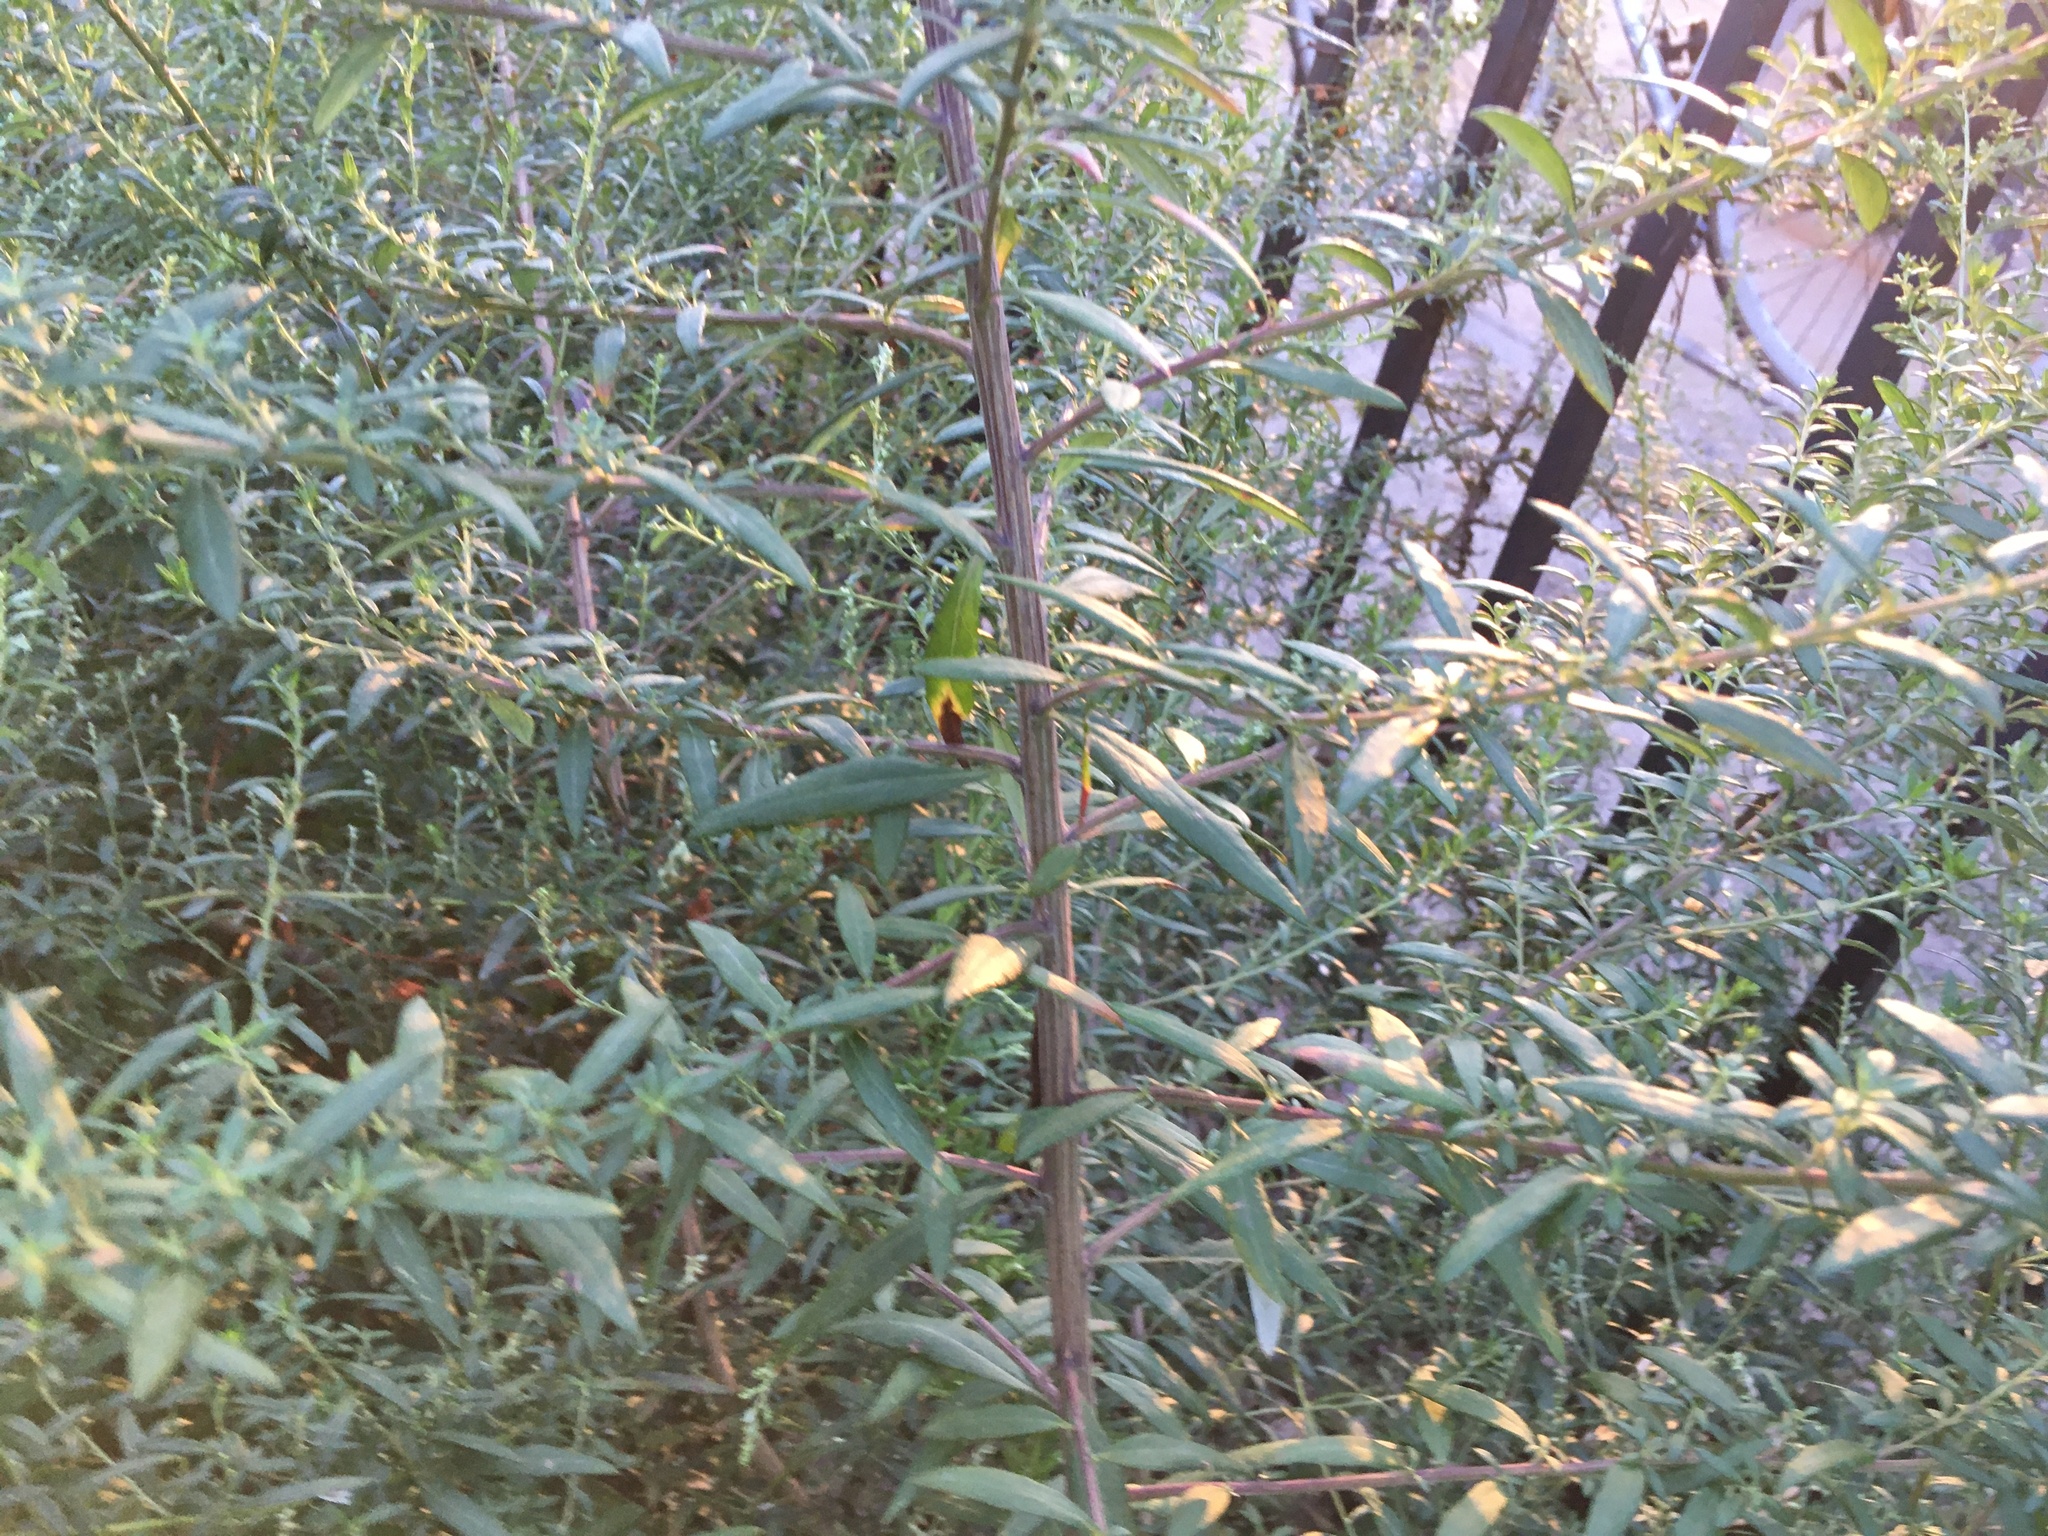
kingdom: Plantae
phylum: Tracheophyta
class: Magnoliopsida
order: Asterales
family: Asteraceae
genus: Artemisia
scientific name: Artemisia vulgaris
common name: Mugwort
